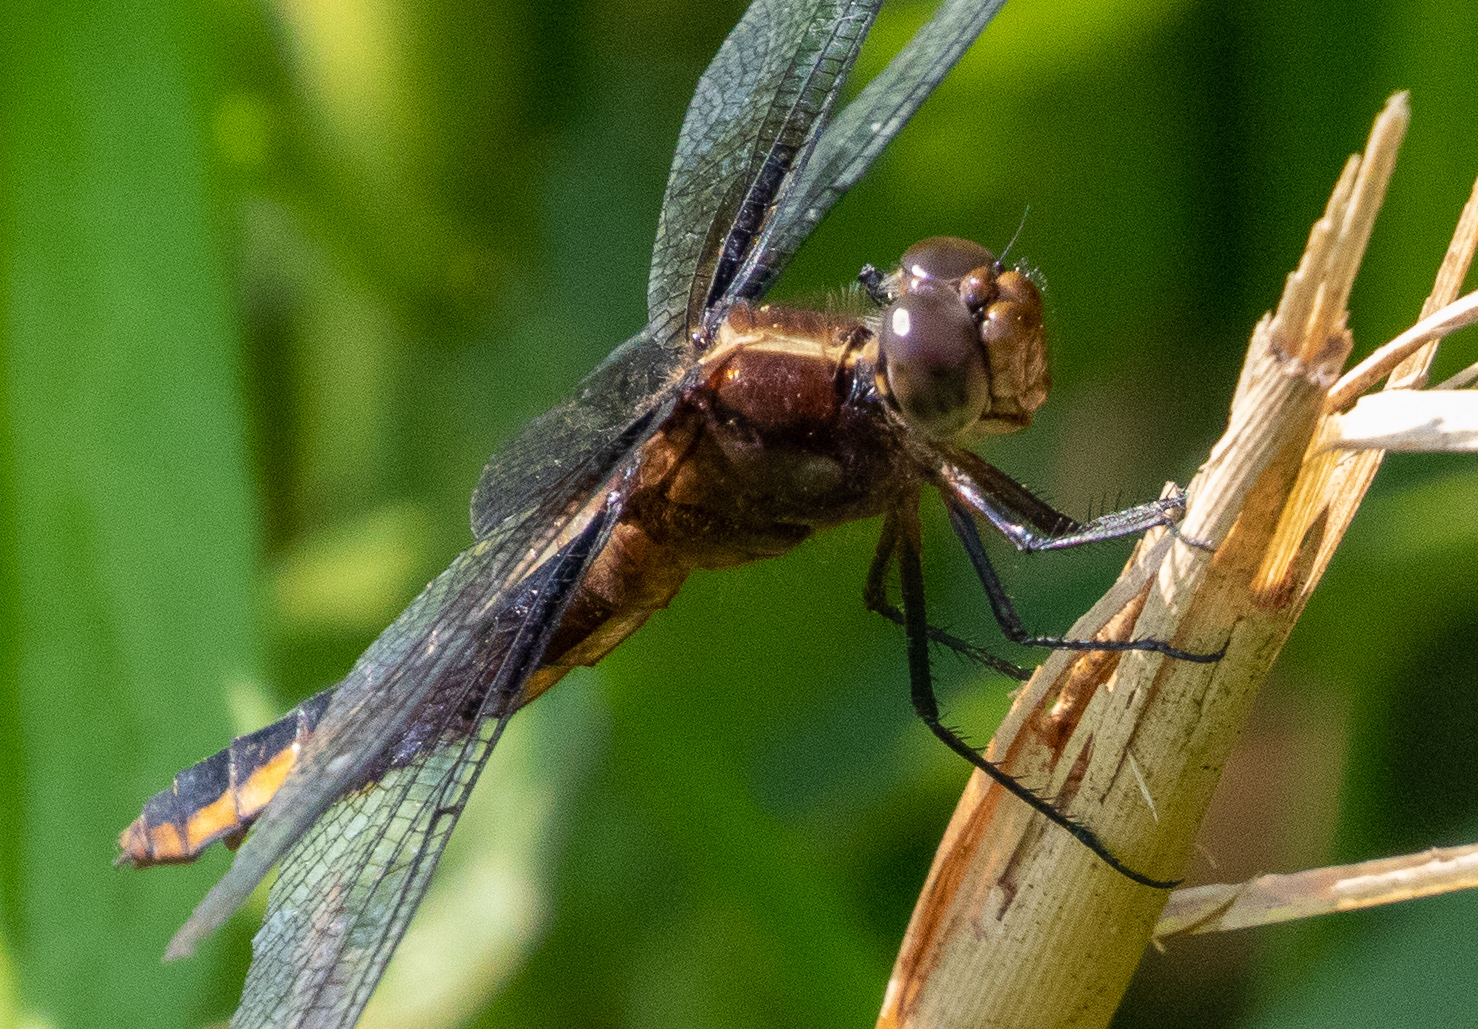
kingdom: Animalia
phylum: Arthropoda
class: Insecta
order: Odonata
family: Libellulidae
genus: Libellula
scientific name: Libellula luctuosa
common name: Widow skimmer
